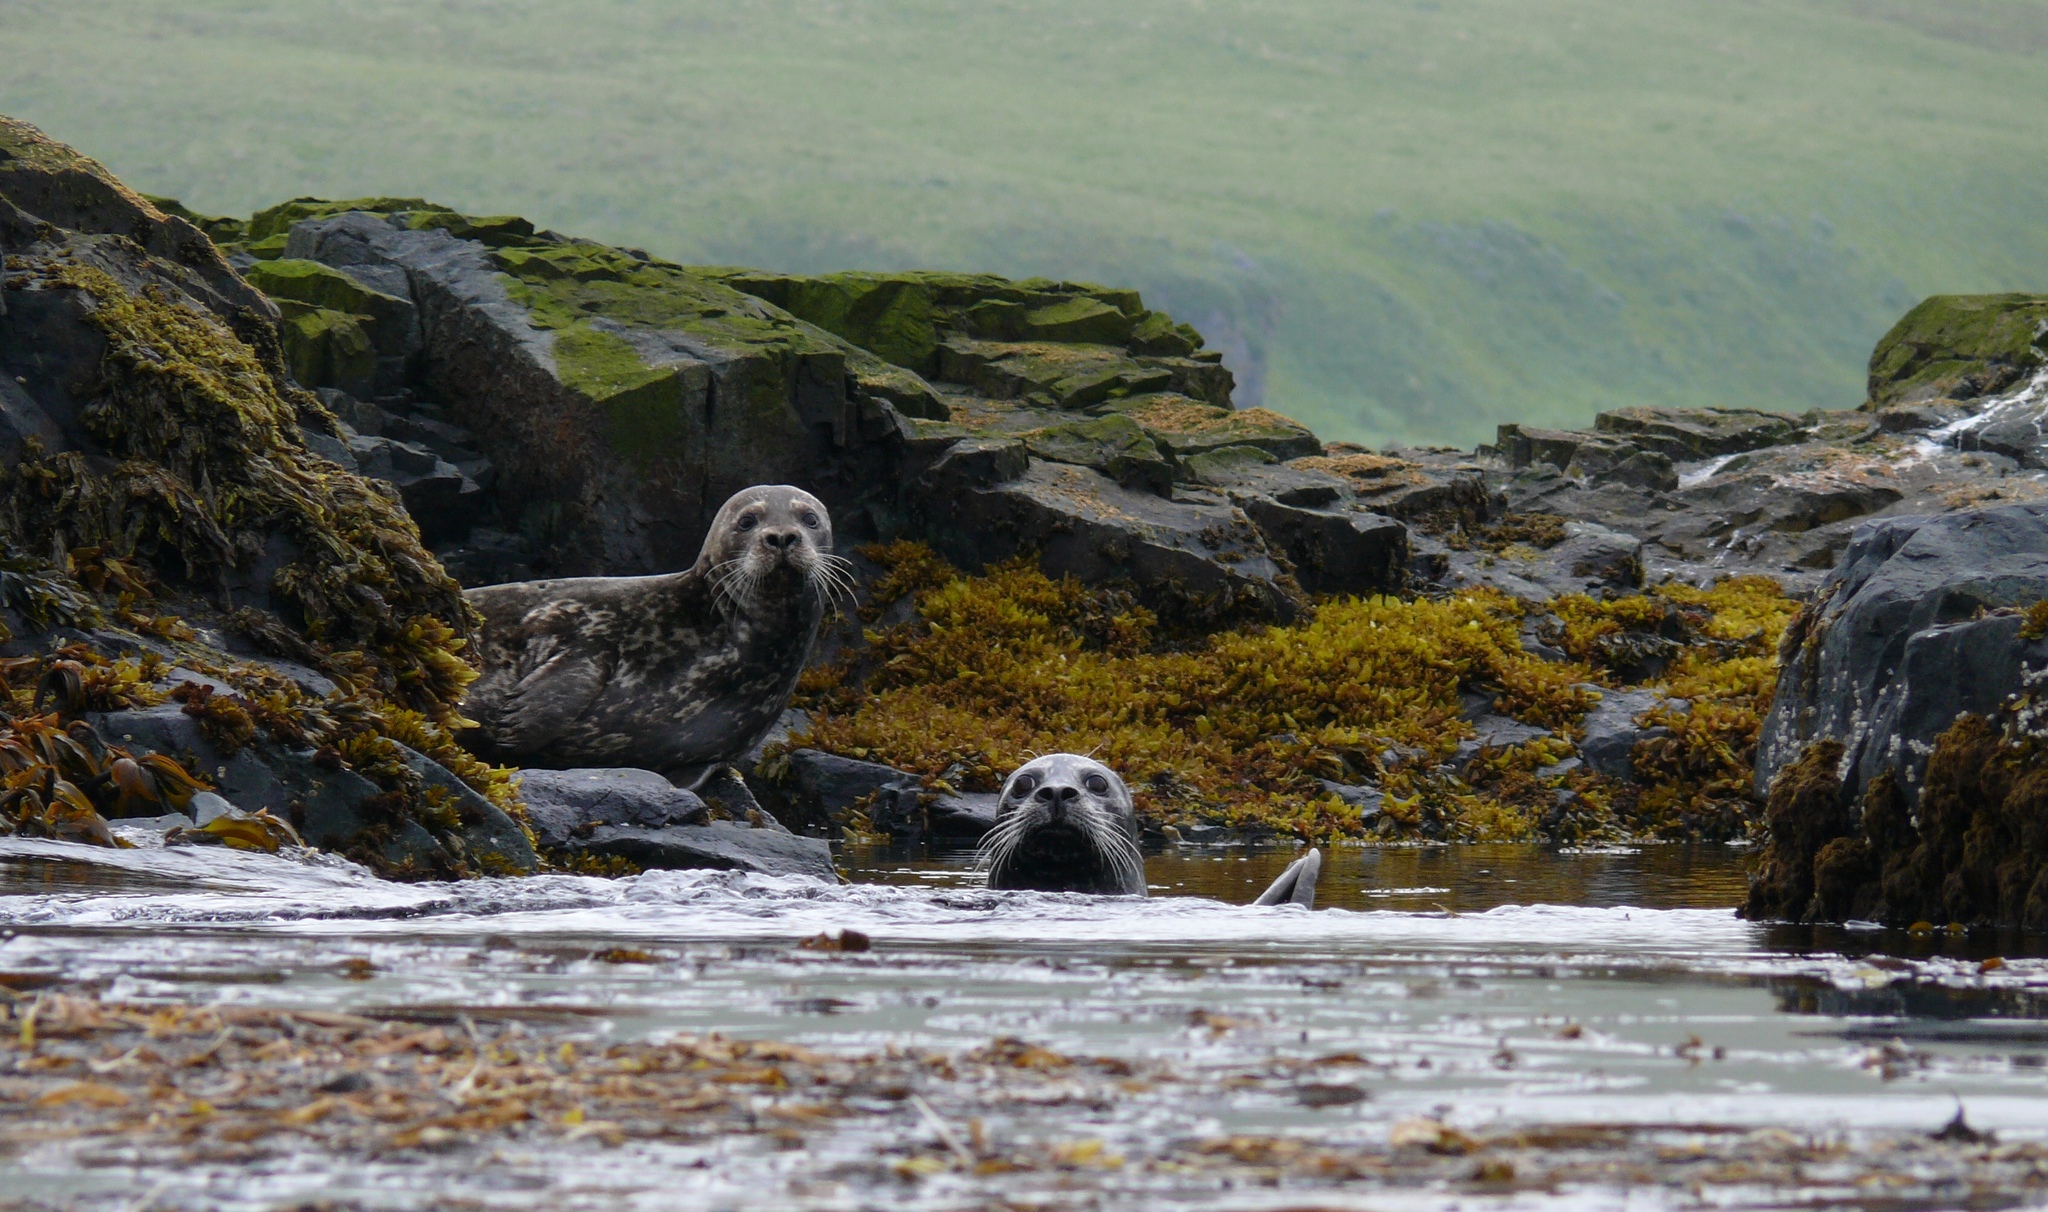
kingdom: Animalia
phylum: Chordata
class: Mammalia
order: Carnivora
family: Phocidae
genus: Phoca
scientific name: Phoca vitulina
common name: Harbor seal
